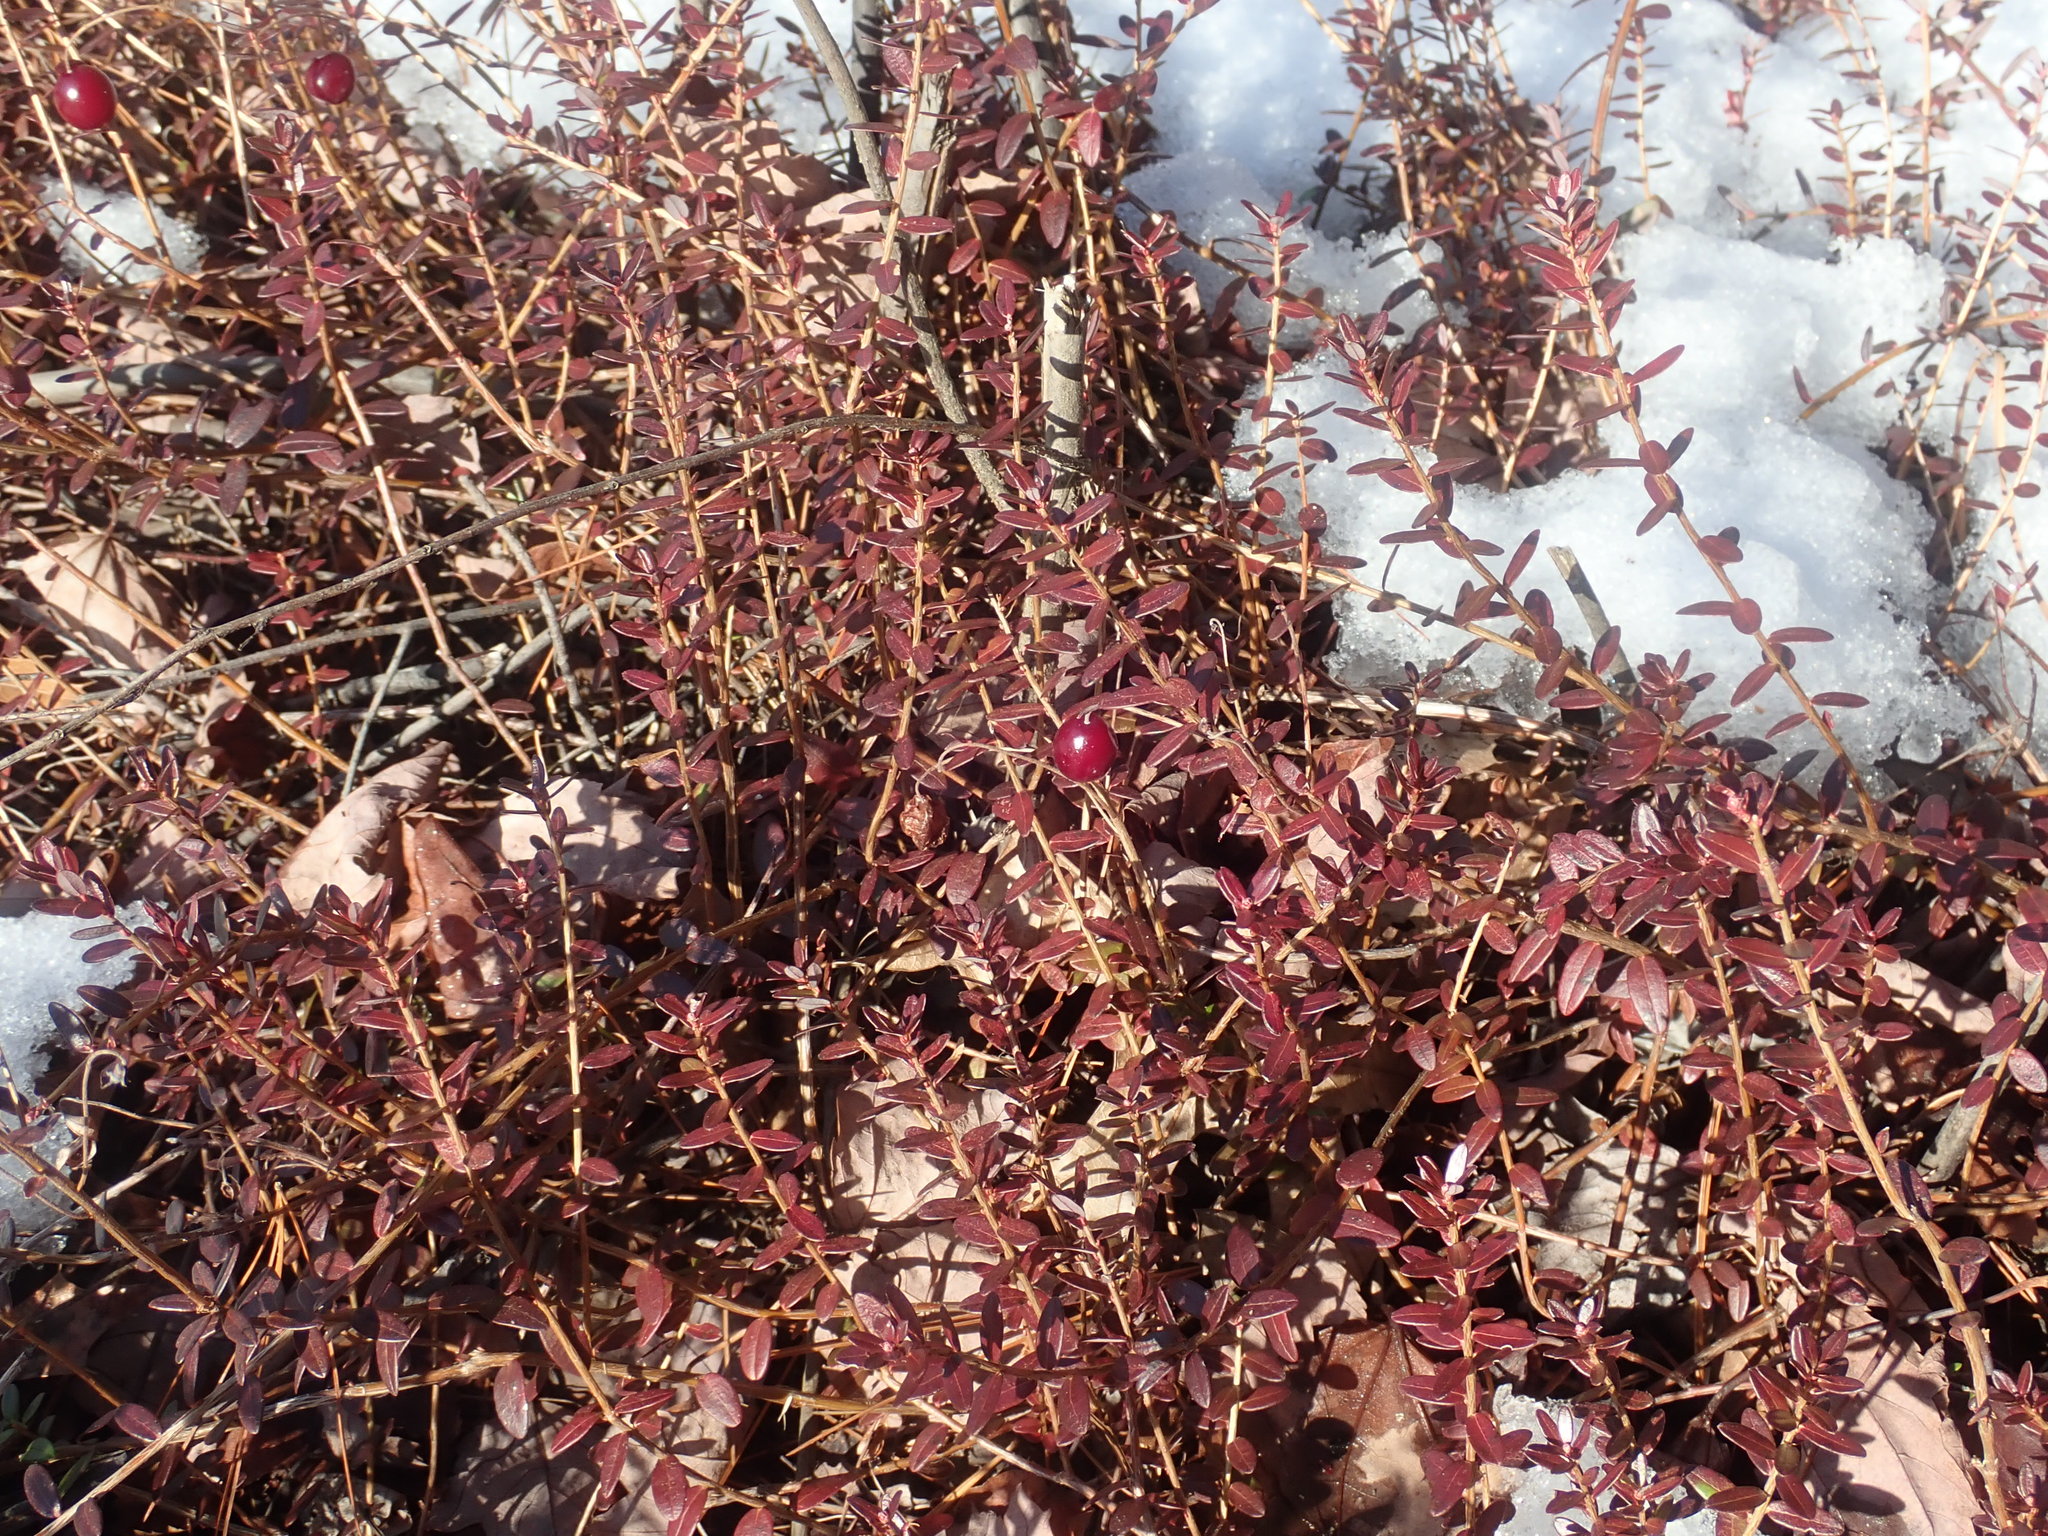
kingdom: Plantae
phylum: Tracheophyta
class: Magnoliopsida
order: Ericales
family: Ericaceae
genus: Vaccinium
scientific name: Vaccinium macrocarpon
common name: American cranberry
